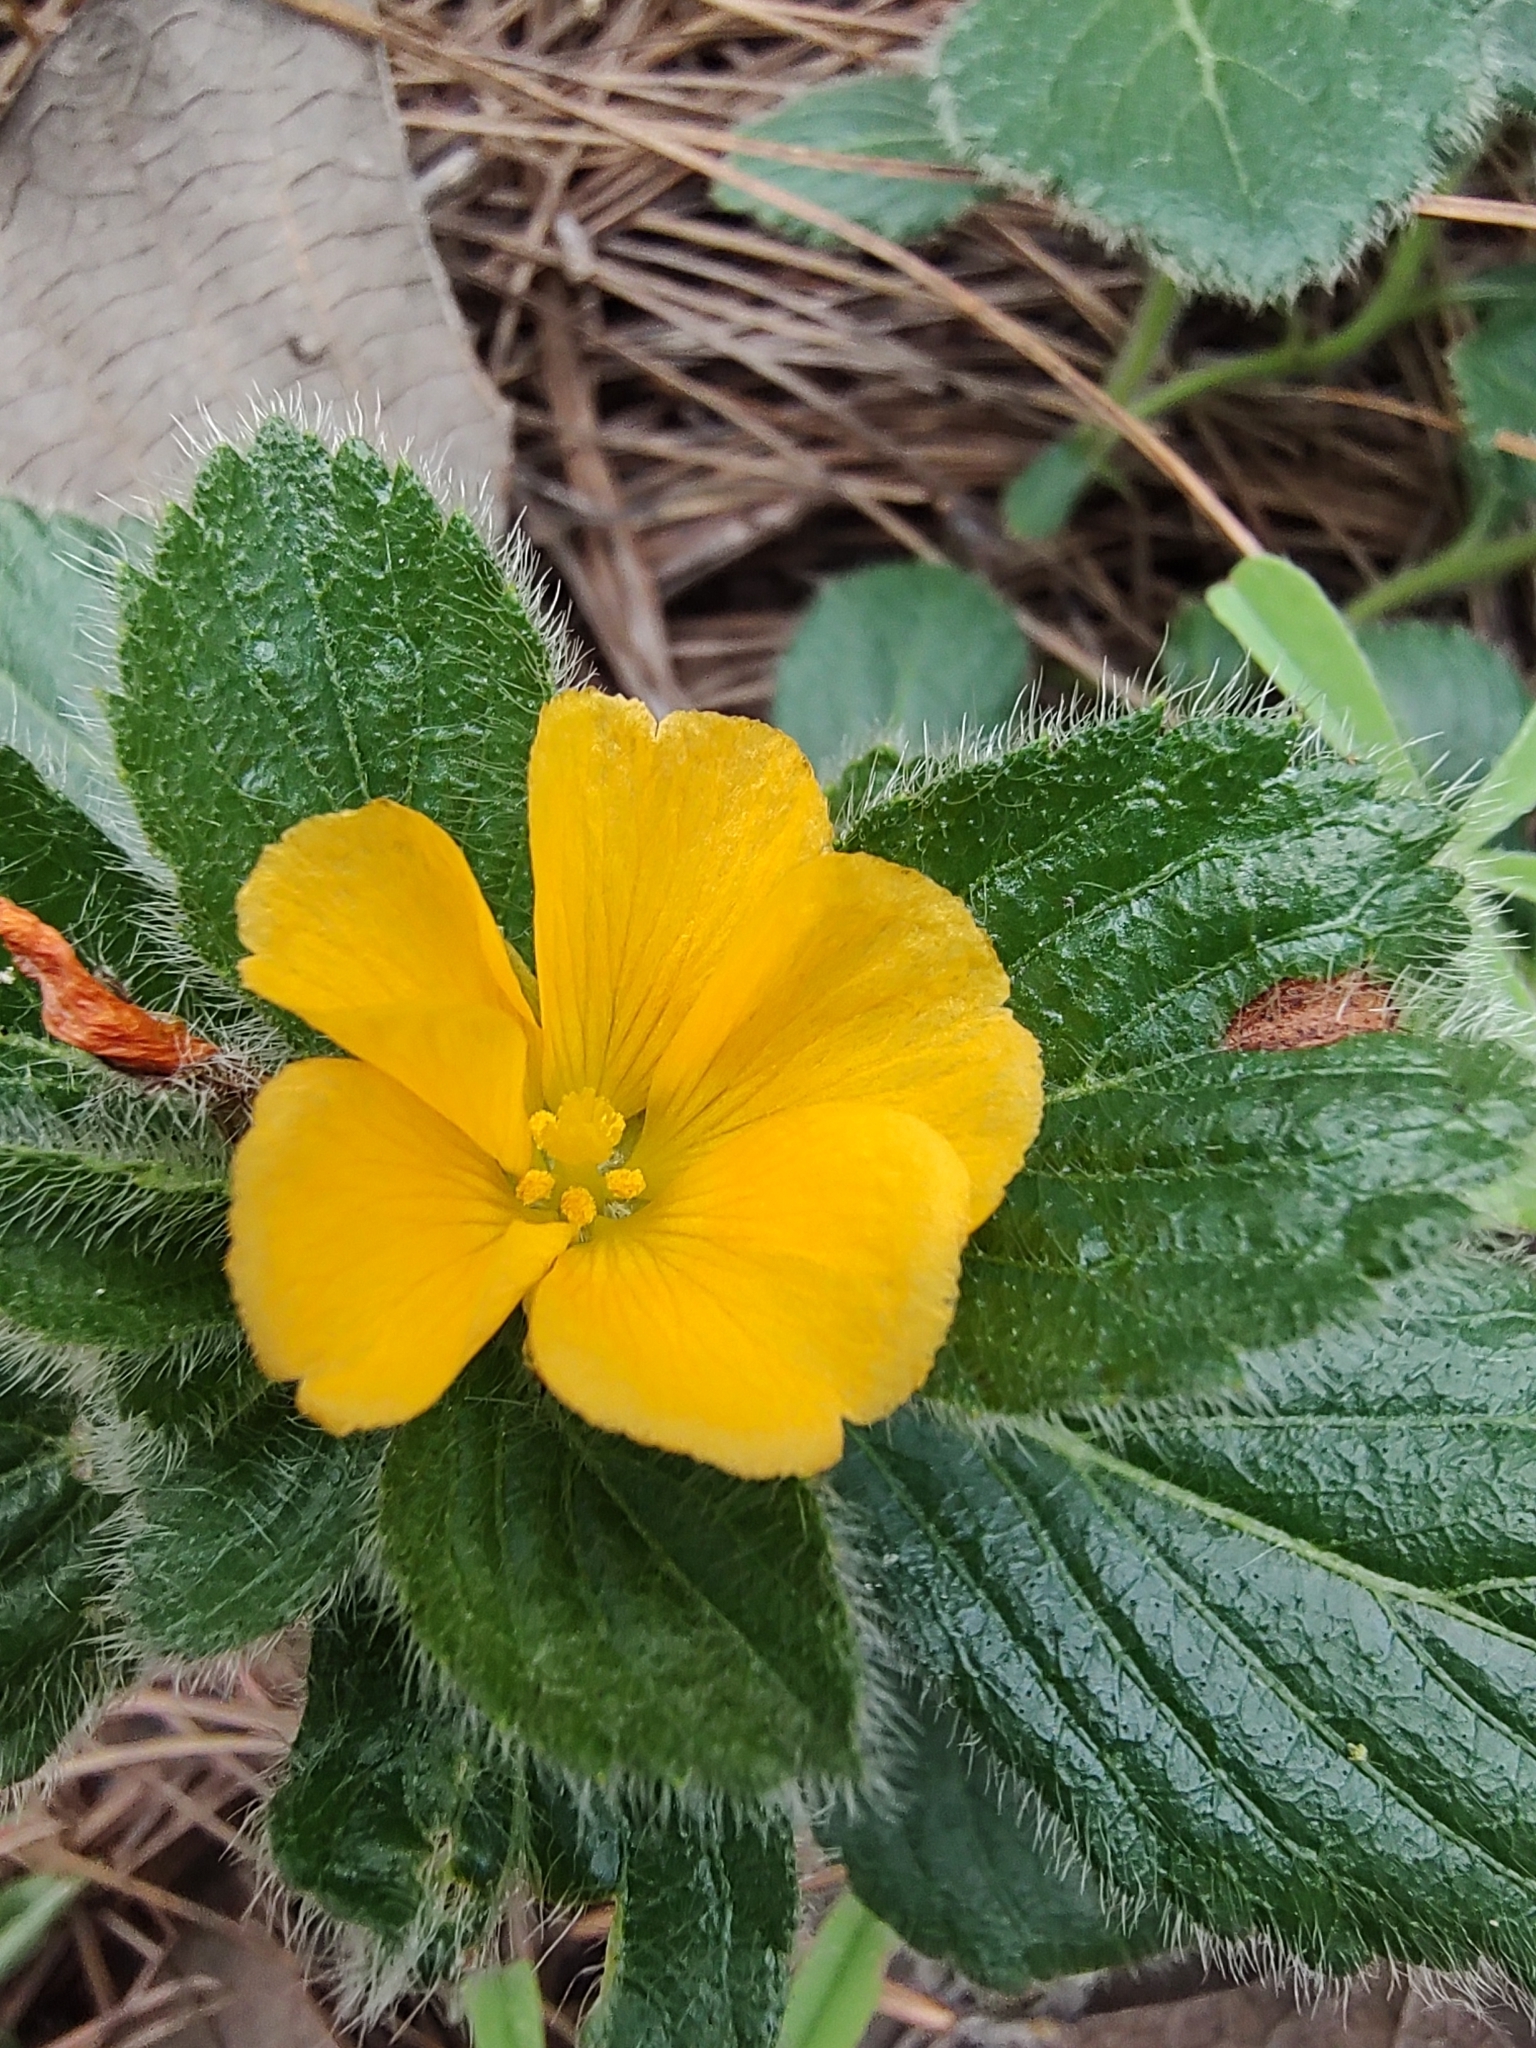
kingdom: Plantae
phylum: Tracheophyta
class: Magnoliopsida
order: Malpighiales
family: Turneraceae
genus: Turnera
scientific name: Turnera callosa
